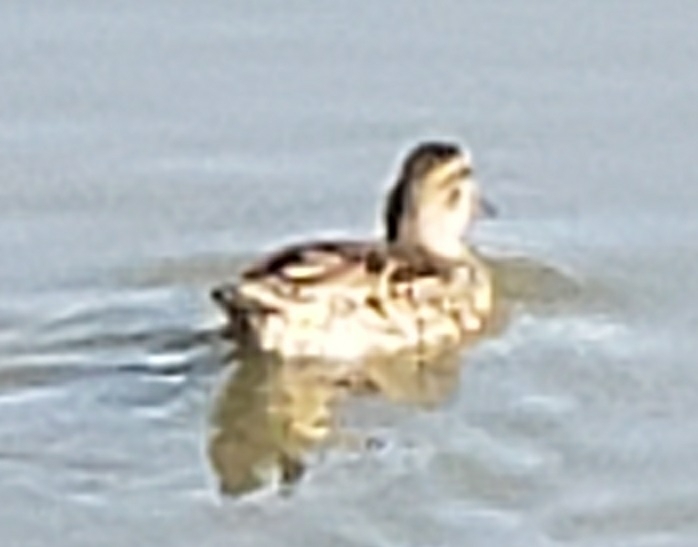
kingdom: Animalia
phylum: Chordata
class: Aves
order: Anseriformes
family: Anatidae
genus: Anas
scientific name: Anas crecca
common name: Eurasian teal
